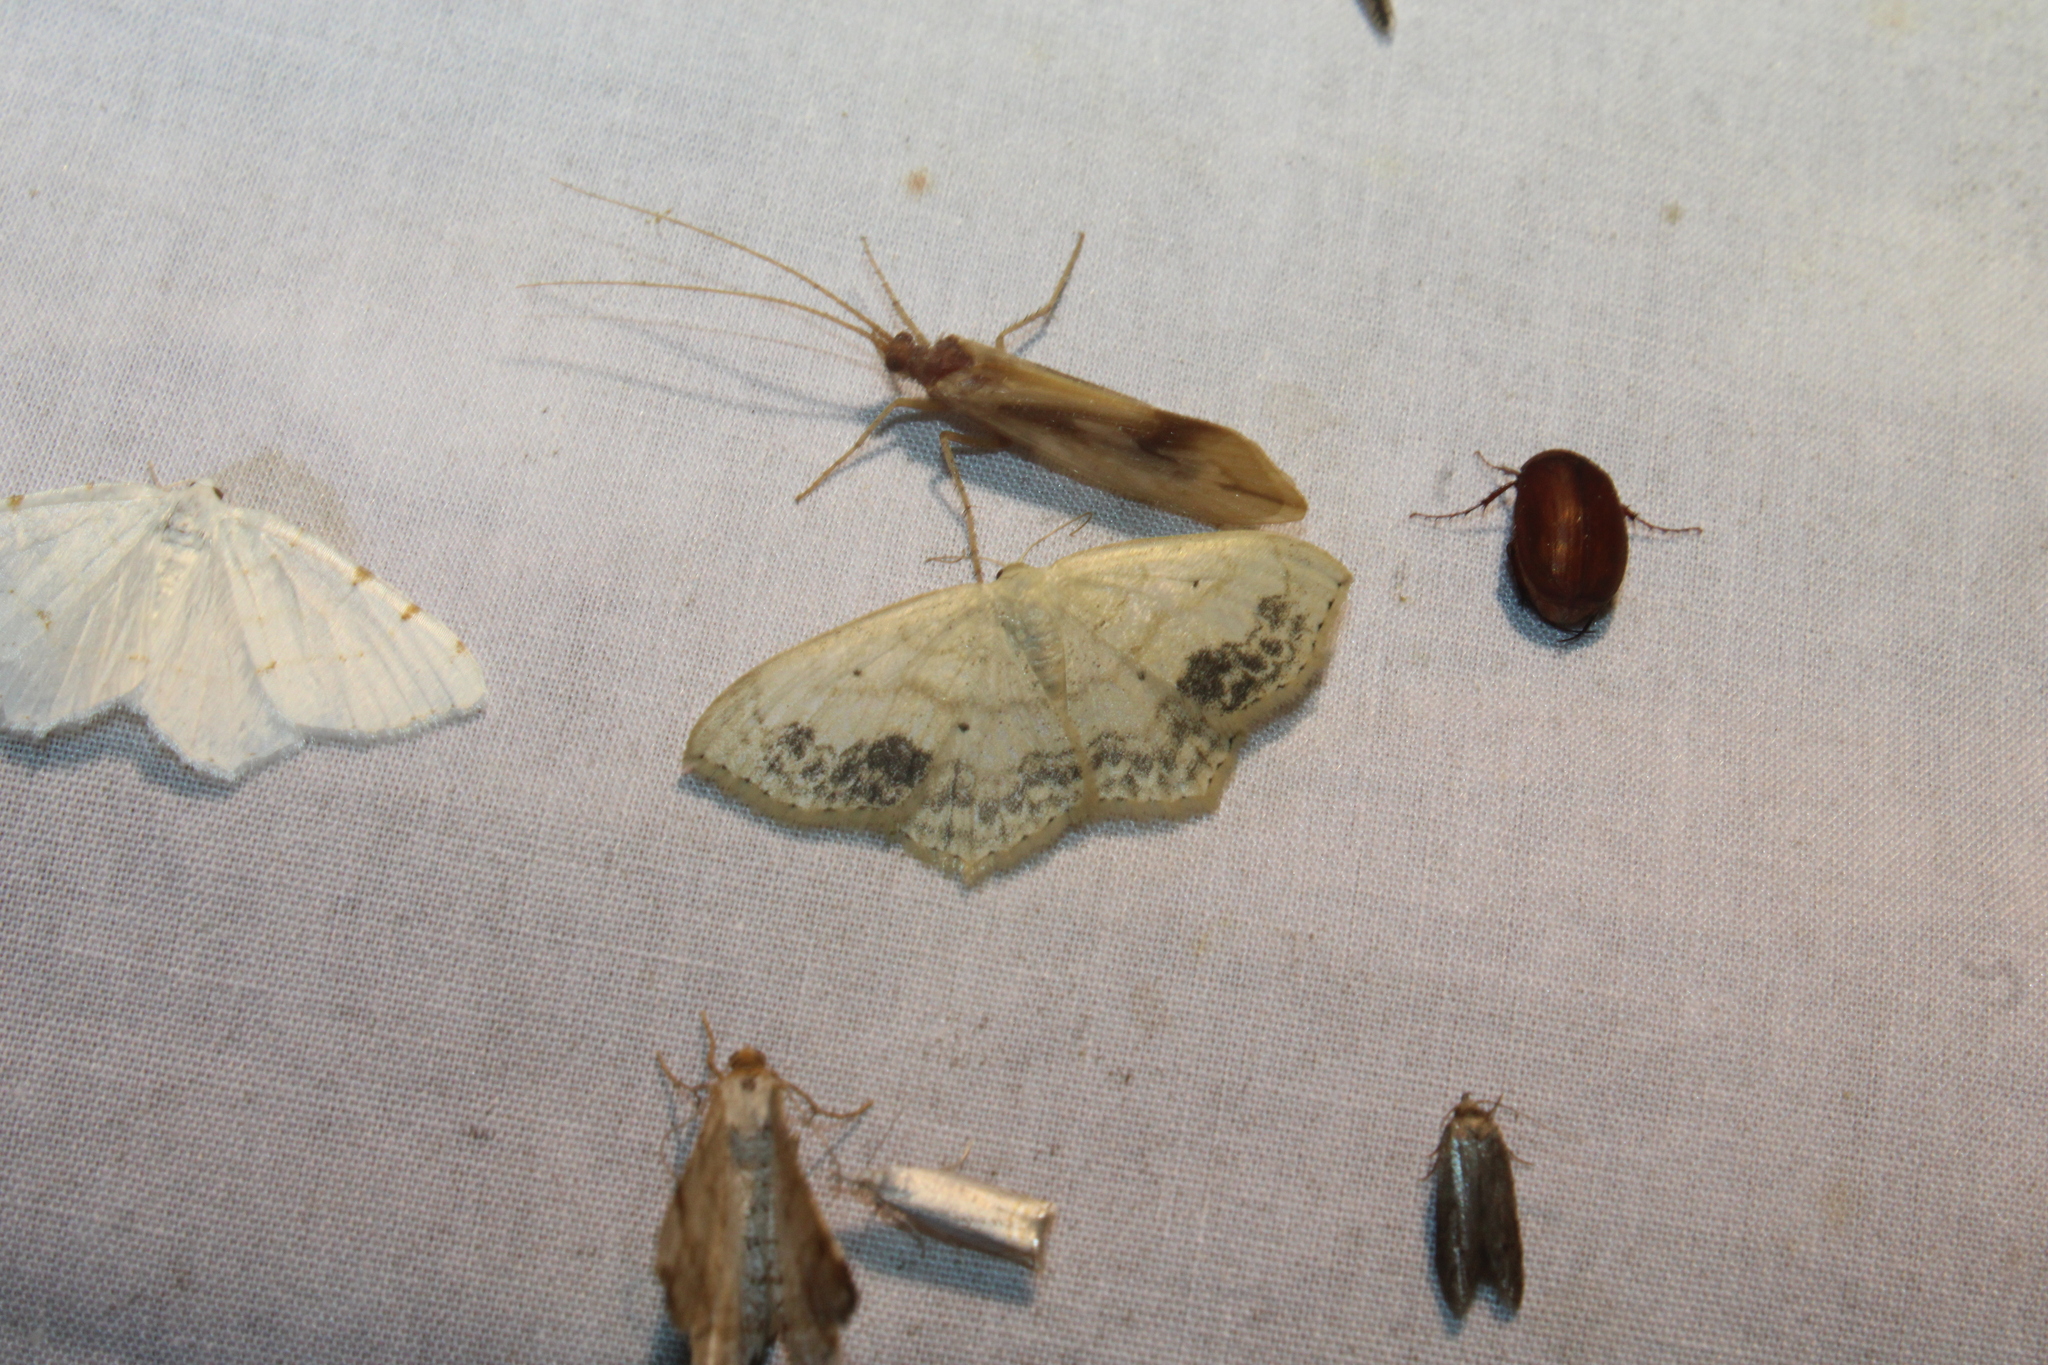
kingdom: Animalia
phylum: Arthropoda
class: Insecta
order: Lepidoptera
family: Geometridae
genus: Scopula
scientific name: Scopula limboundata
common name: Large lace border
